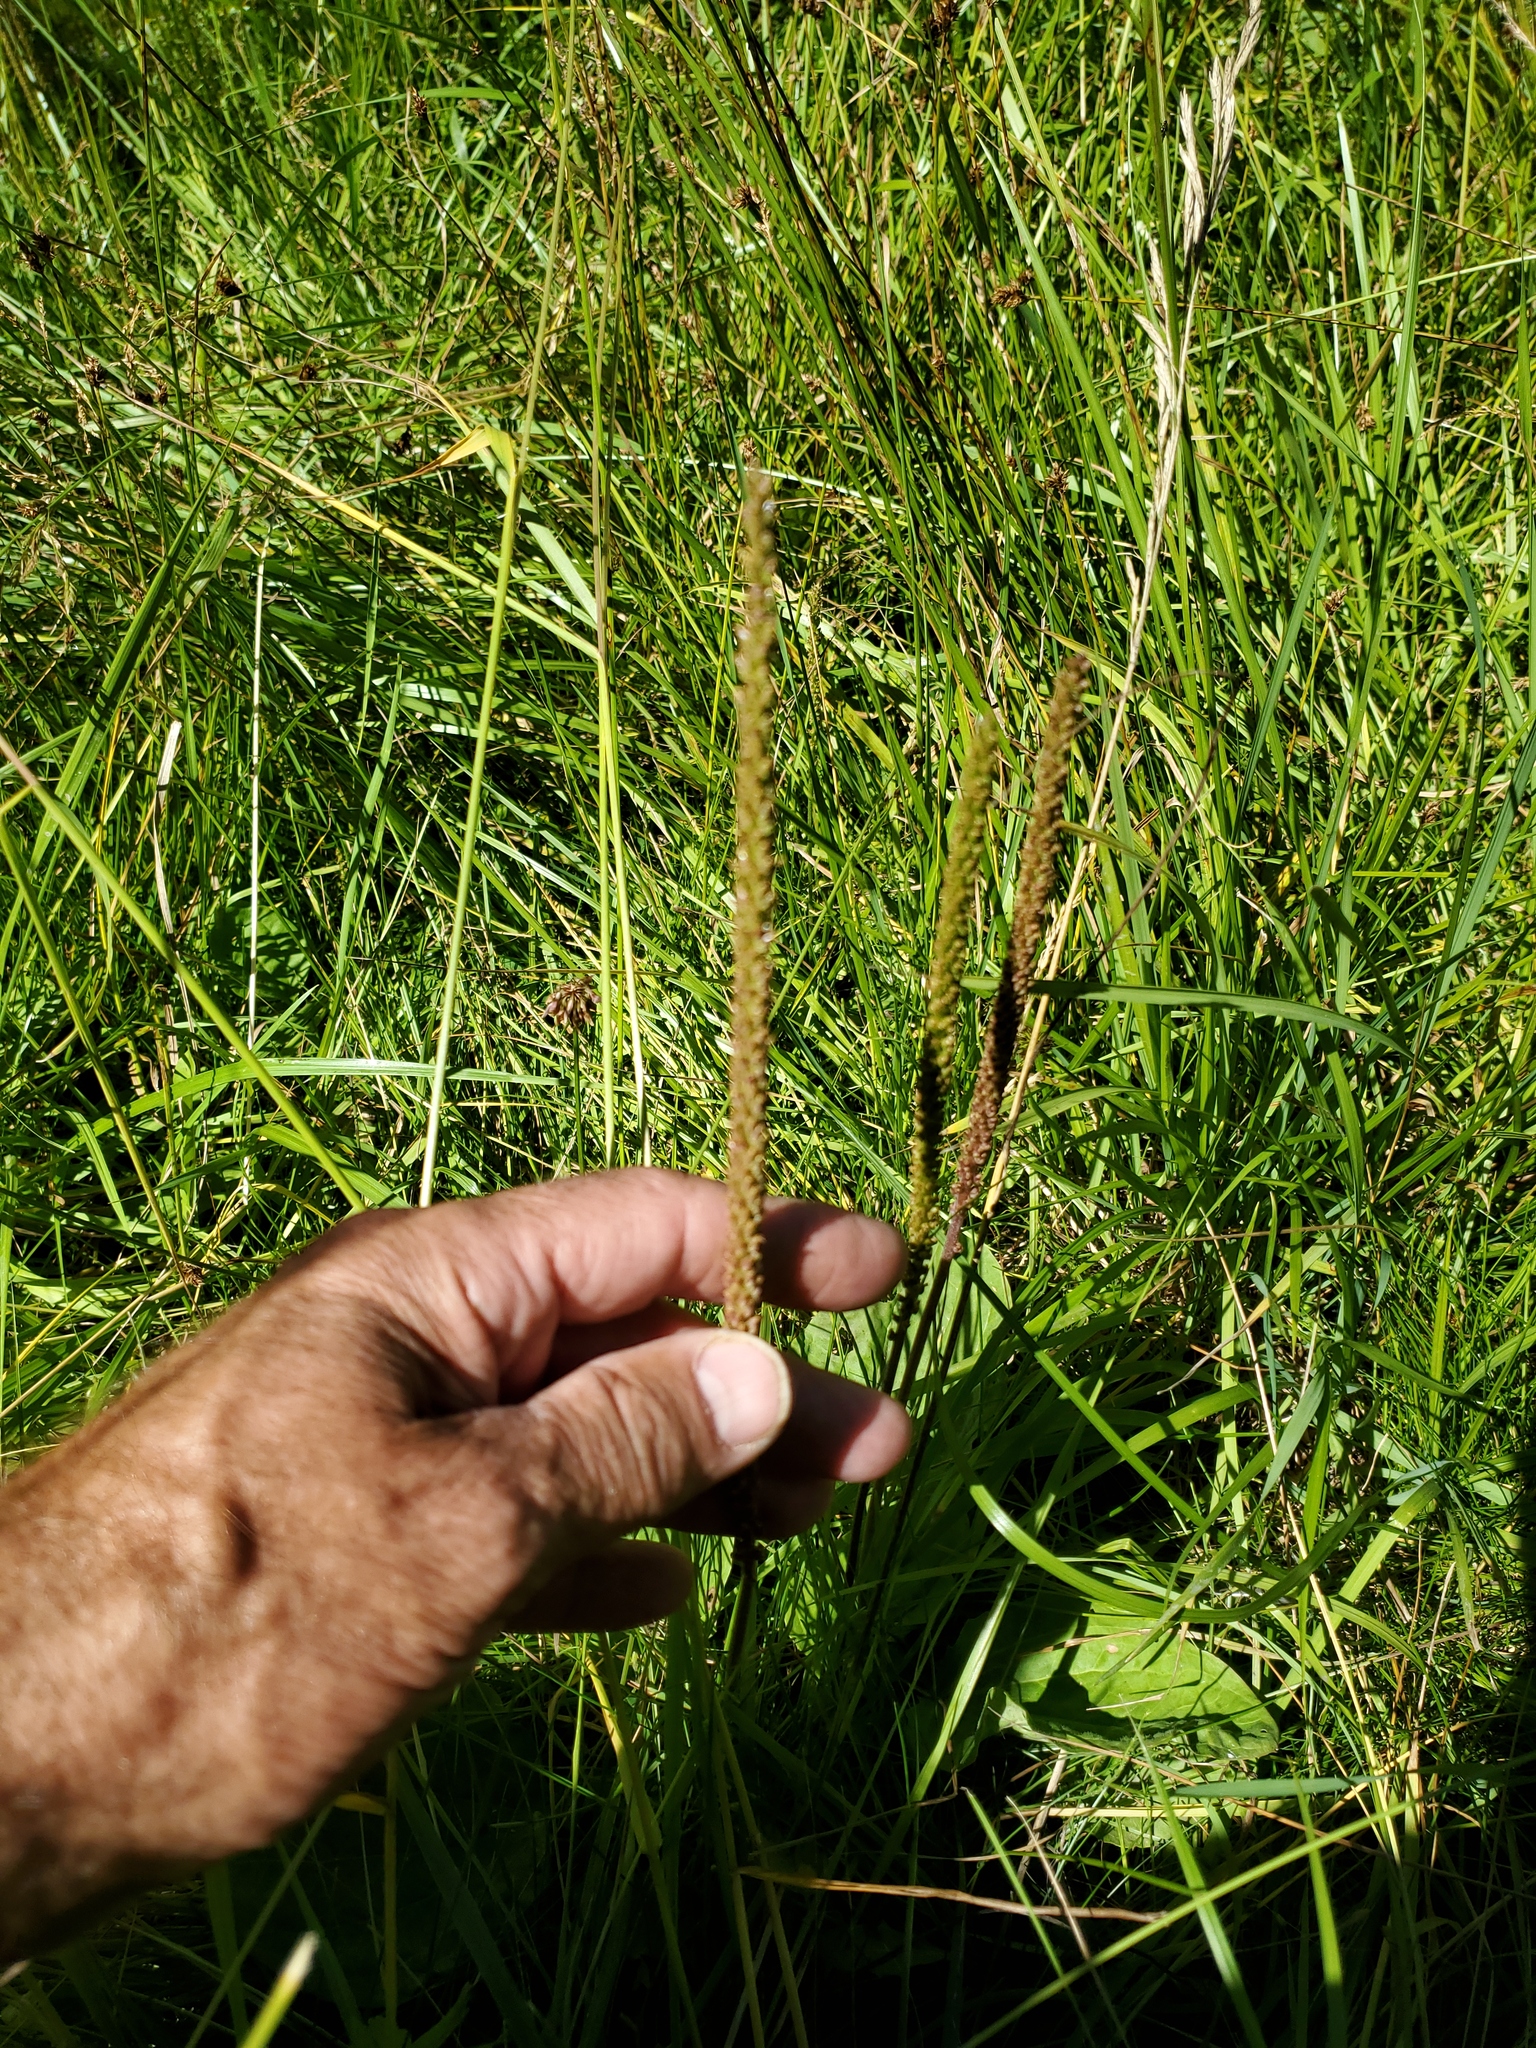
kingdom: Plantae
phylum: Tracheophyta
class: Magnoliopsida
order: Lamiales
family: Plantaginaceae
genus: Plantago
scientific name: Plantago major
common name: Common plantain
